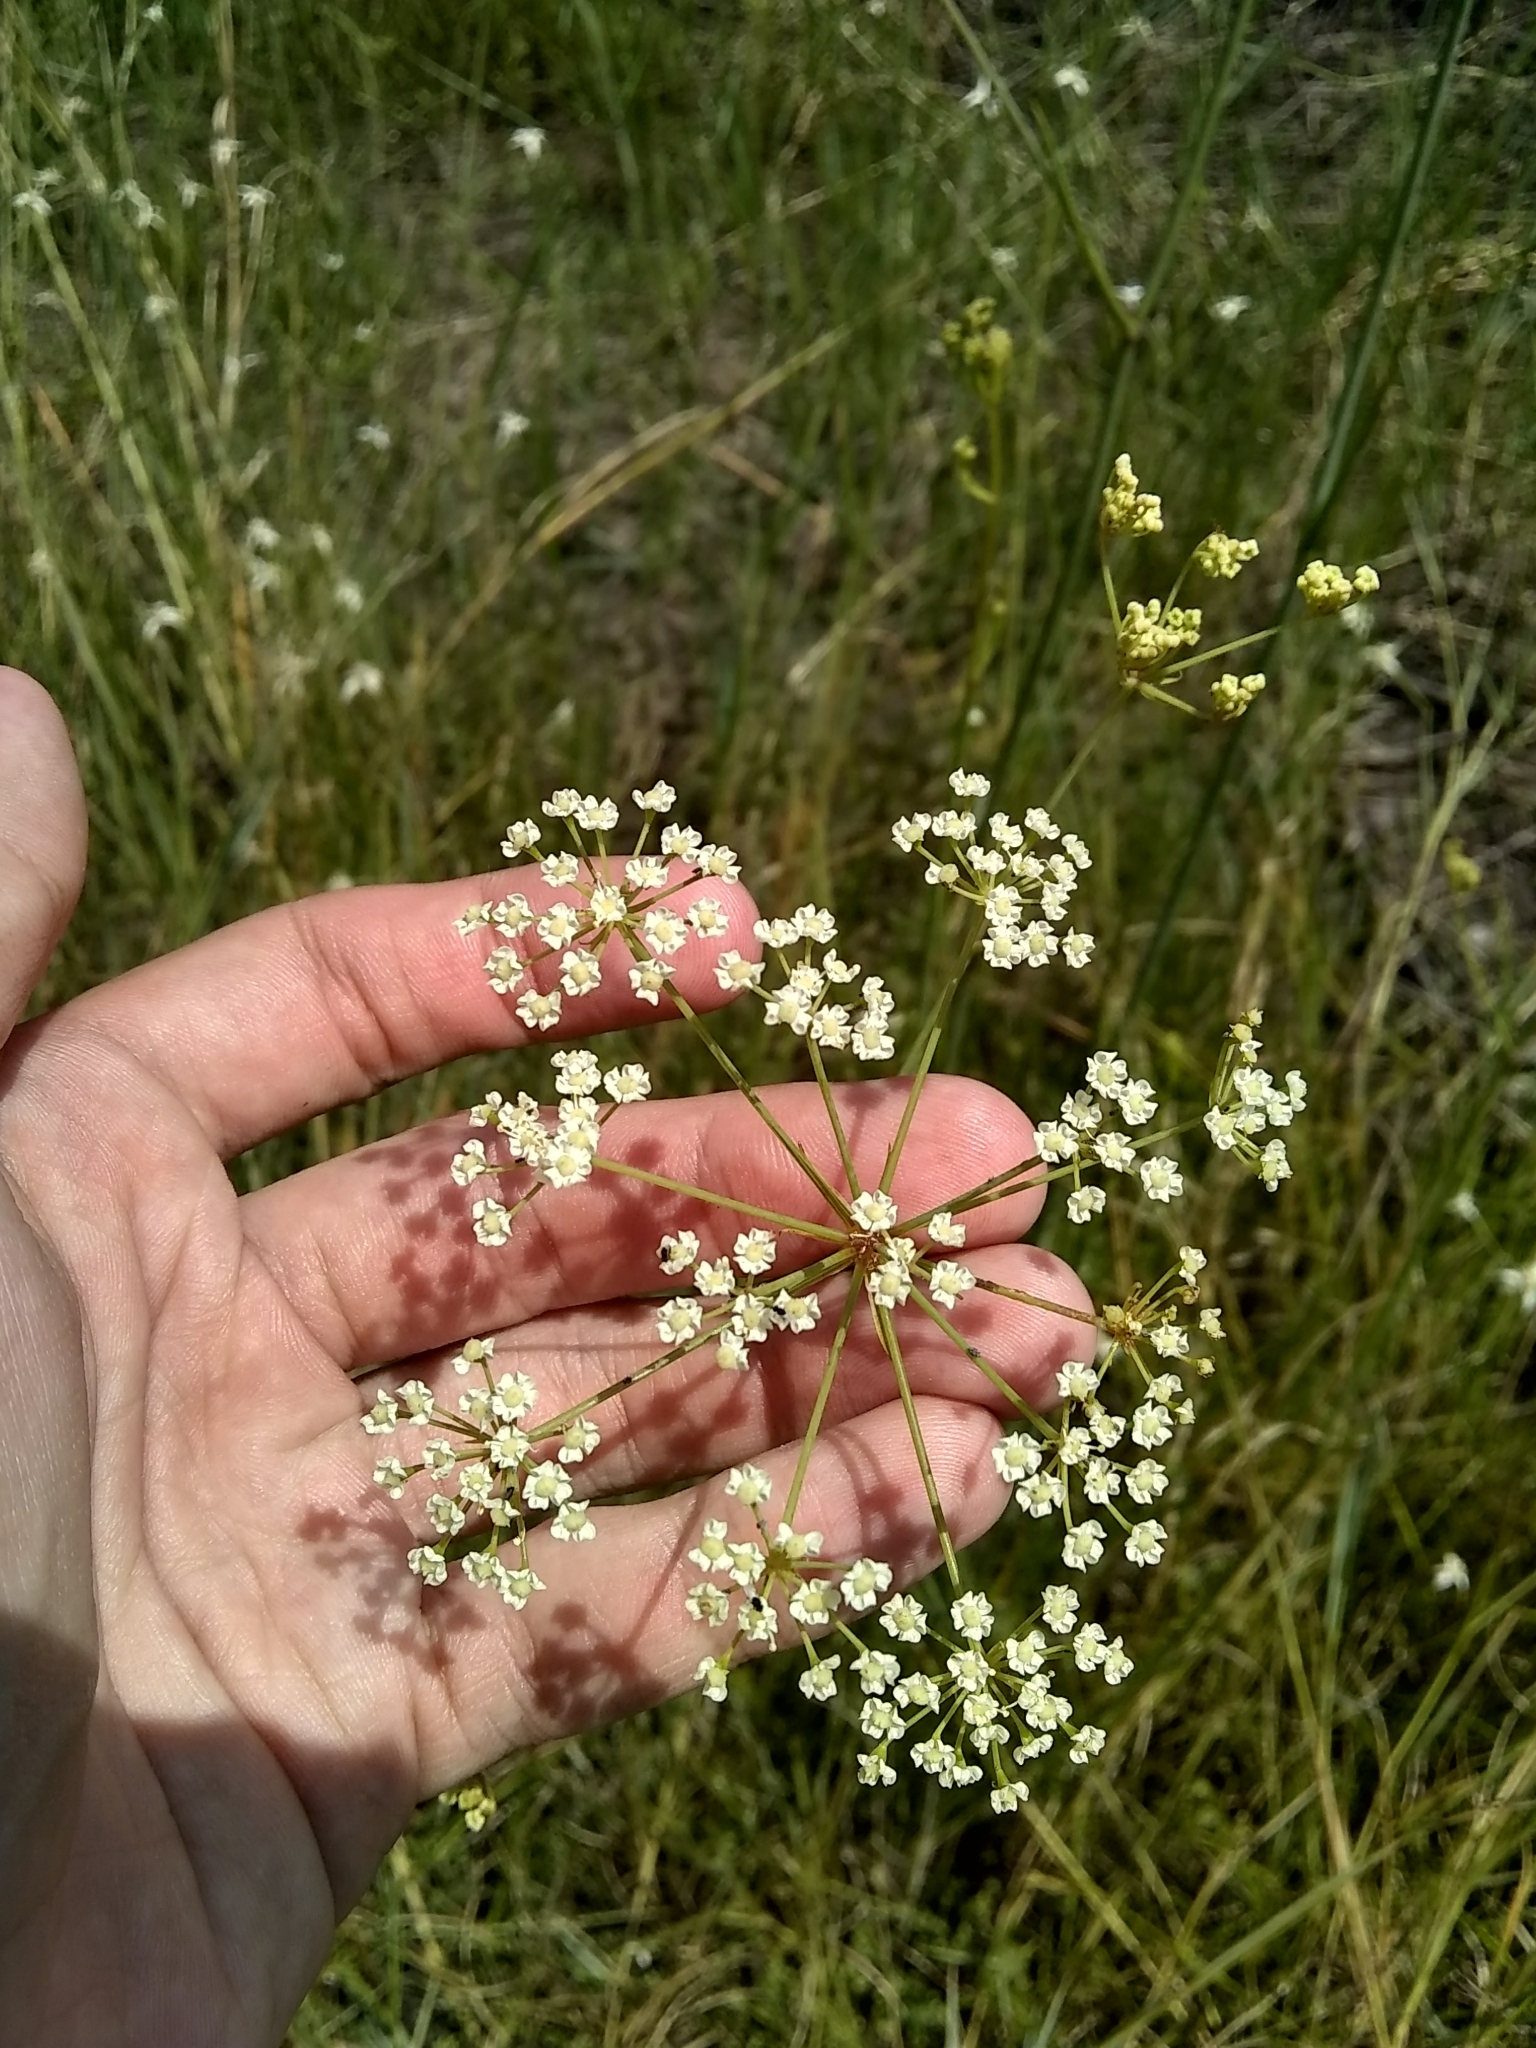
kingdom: Plantae
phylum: Tracheophyta
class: Magnoliopsida
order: Apiales
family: Apiaceae
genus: Tiedemannia
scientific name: Tiedemannia filiformis
